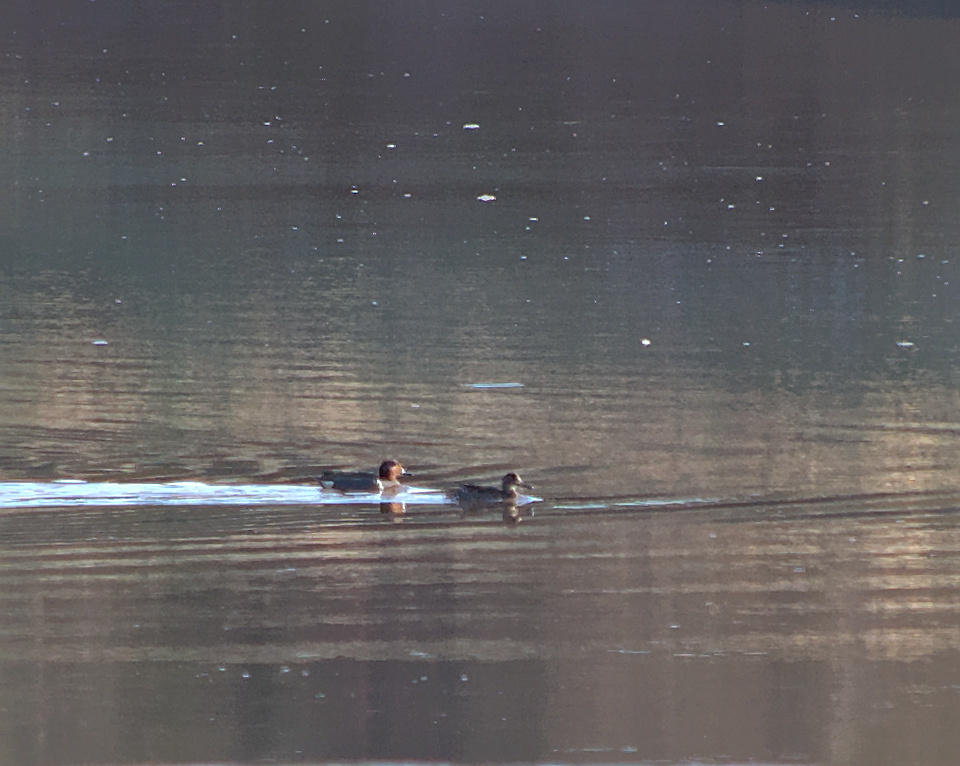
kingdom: Animalia
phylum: Chordata
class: Aves
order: Anseriformes
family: Anatidae
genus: Anas
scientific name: Anas carolinensis
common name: Green-winged teal
